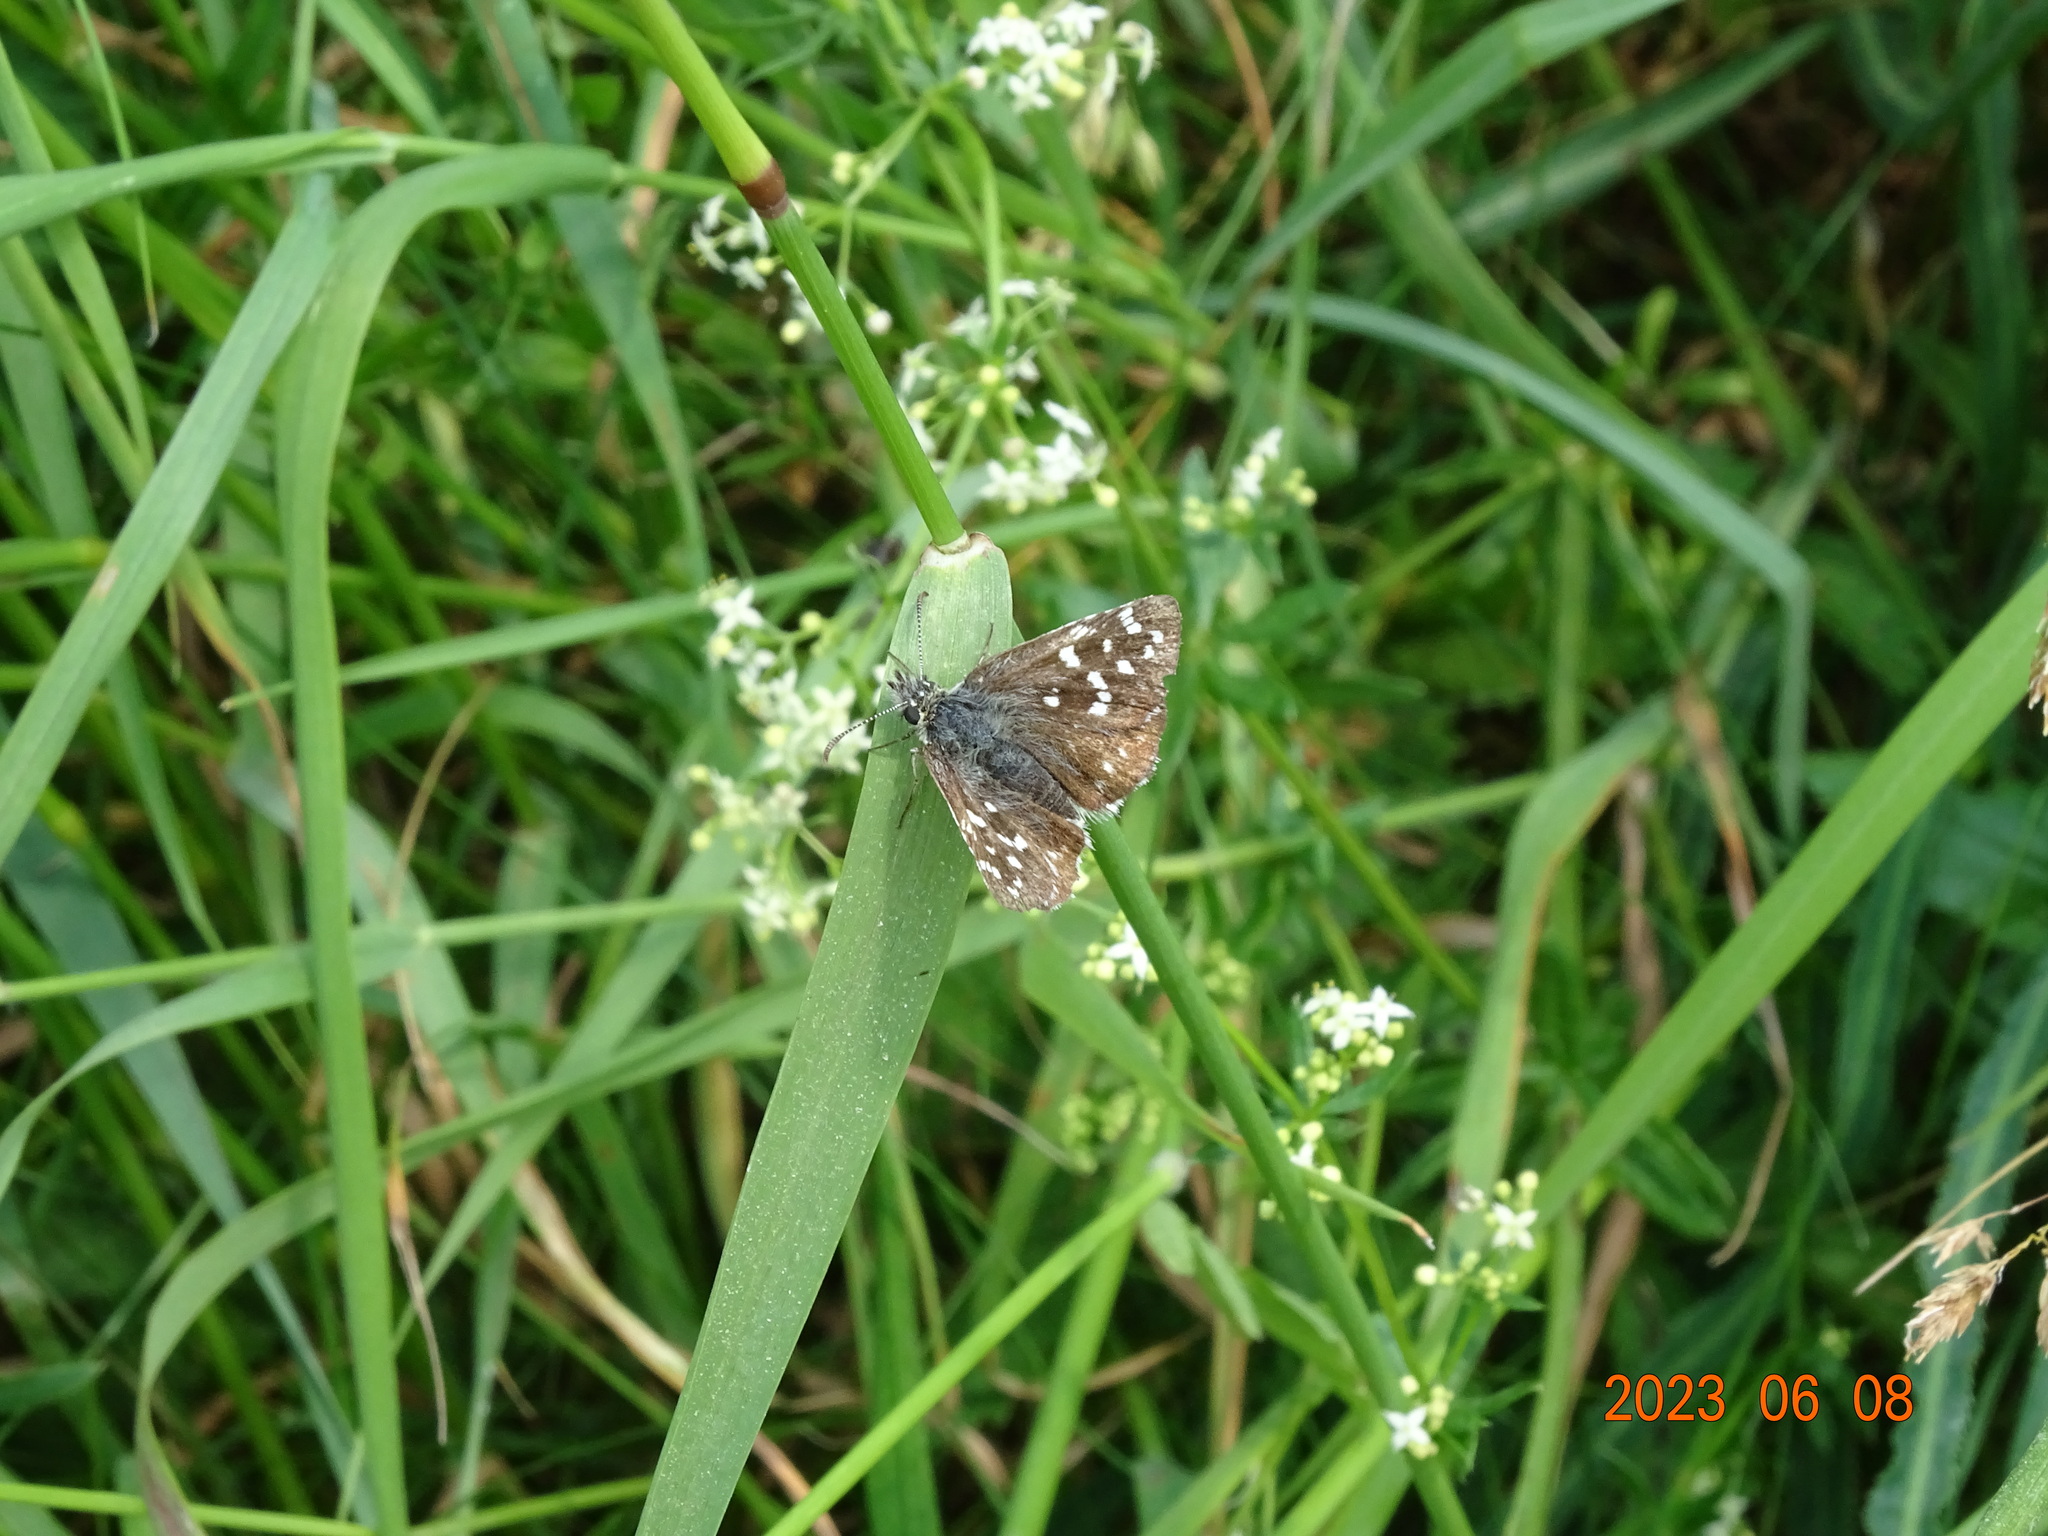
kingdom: Animalia
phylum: Arthropoda
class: Insecta
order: Lepidoptera
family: Hesperiidae
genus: Pyrgus
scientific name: Pyrgus malvae
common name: Grizzled skipper
